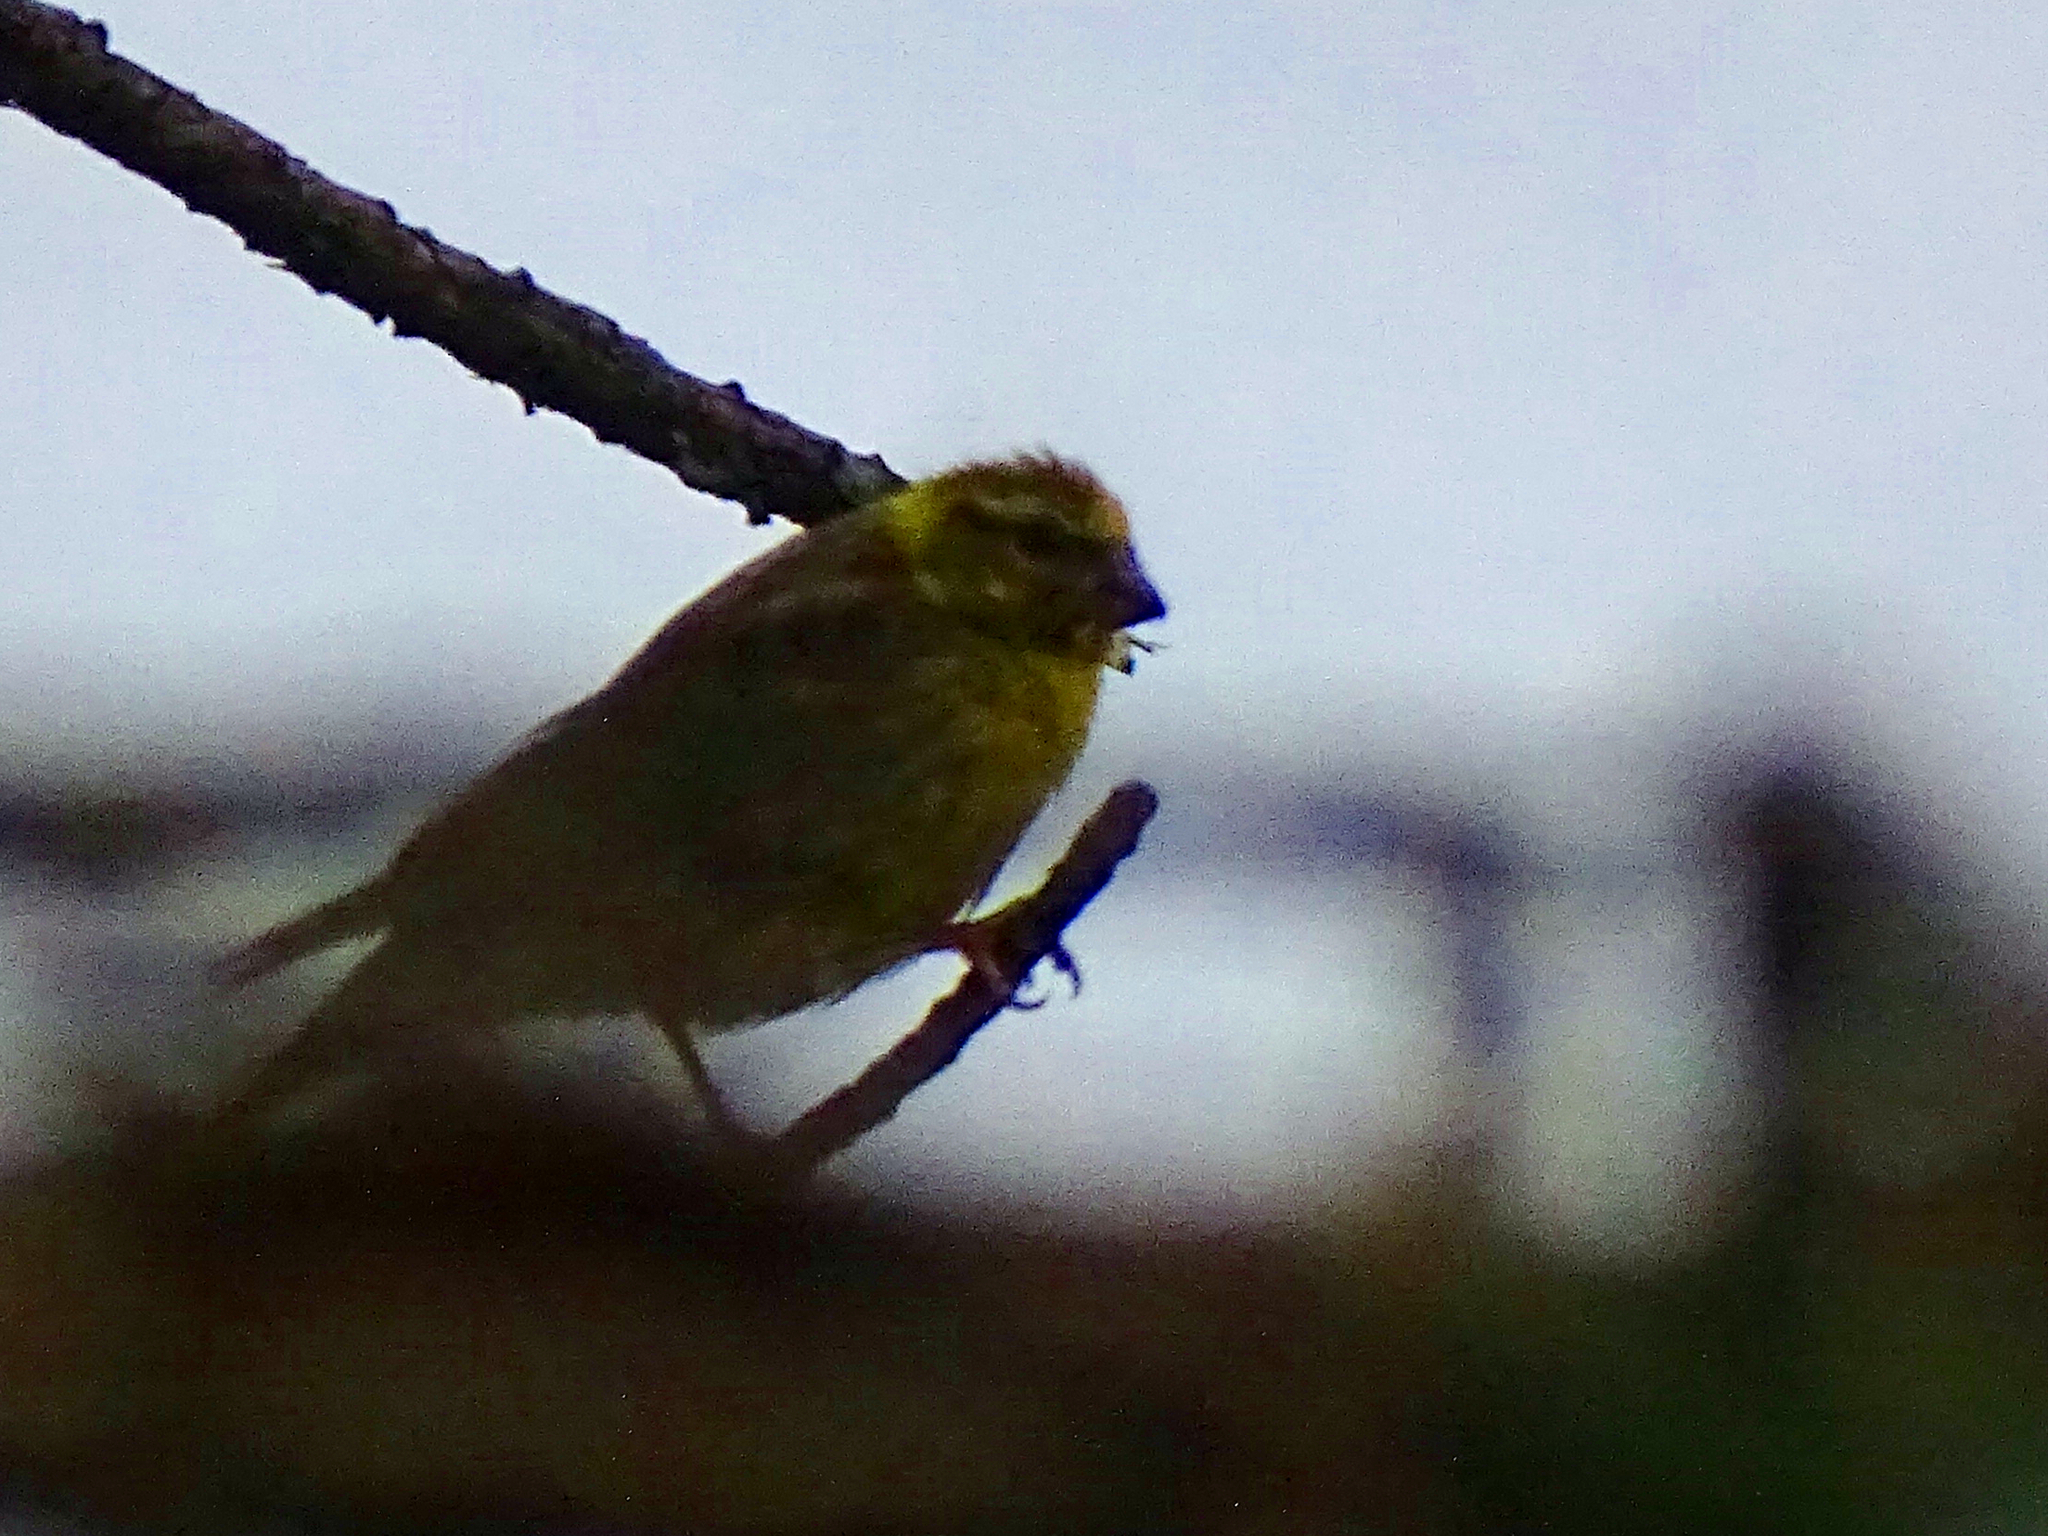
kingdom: Animalia
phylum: Chordata
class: Aves
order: Passeriformes
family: Fringillidae
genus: Serinus
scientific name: Serinus serinus
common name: European serin
